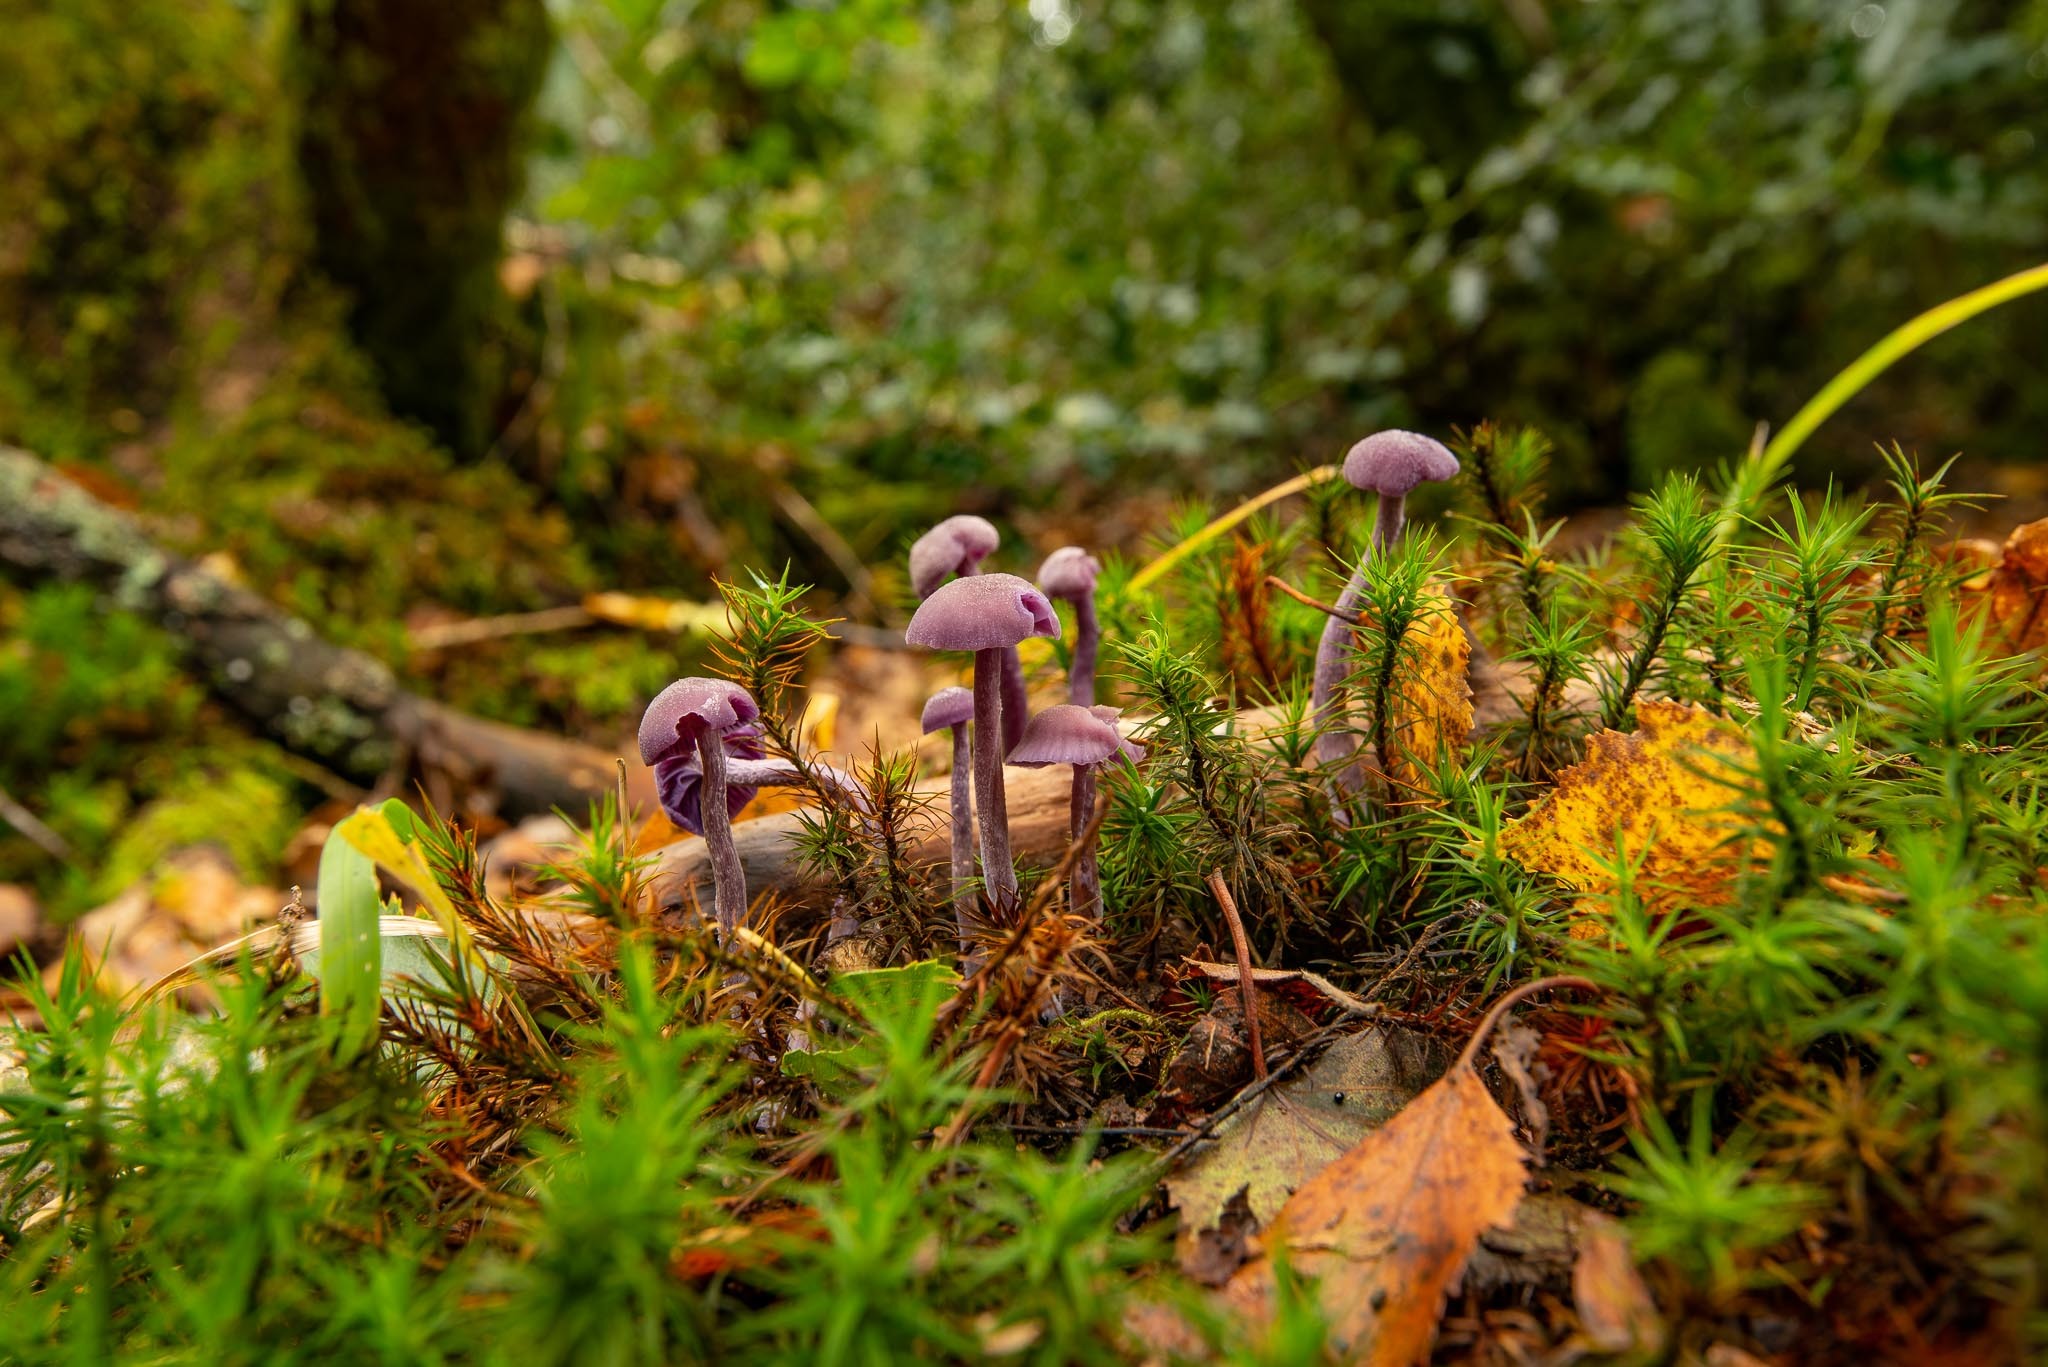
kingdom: Fungi
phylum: Basidiomycota
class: Agaricomycetes
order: Agaricales
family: Hydnangiaceae
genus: Laccaria
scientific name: Laccaria amethystina
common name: Amethyst deceiver
